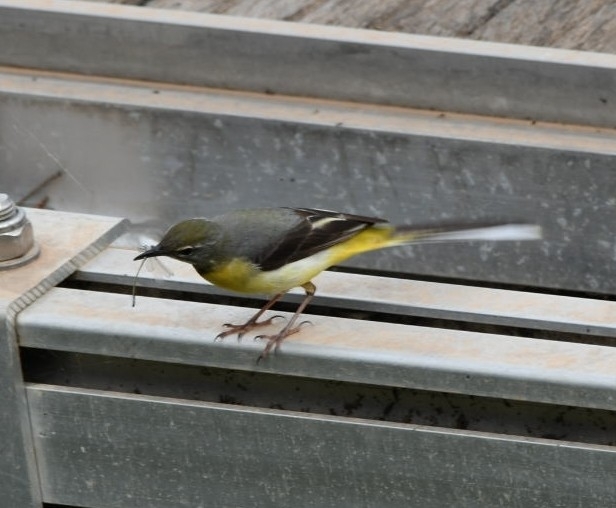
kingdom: Animalia
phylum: Chordata
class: Aves
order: Passeriformes
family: Motacillidae
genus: Motacilla
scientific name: Motacilla cinerea
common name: Grey wagtail
